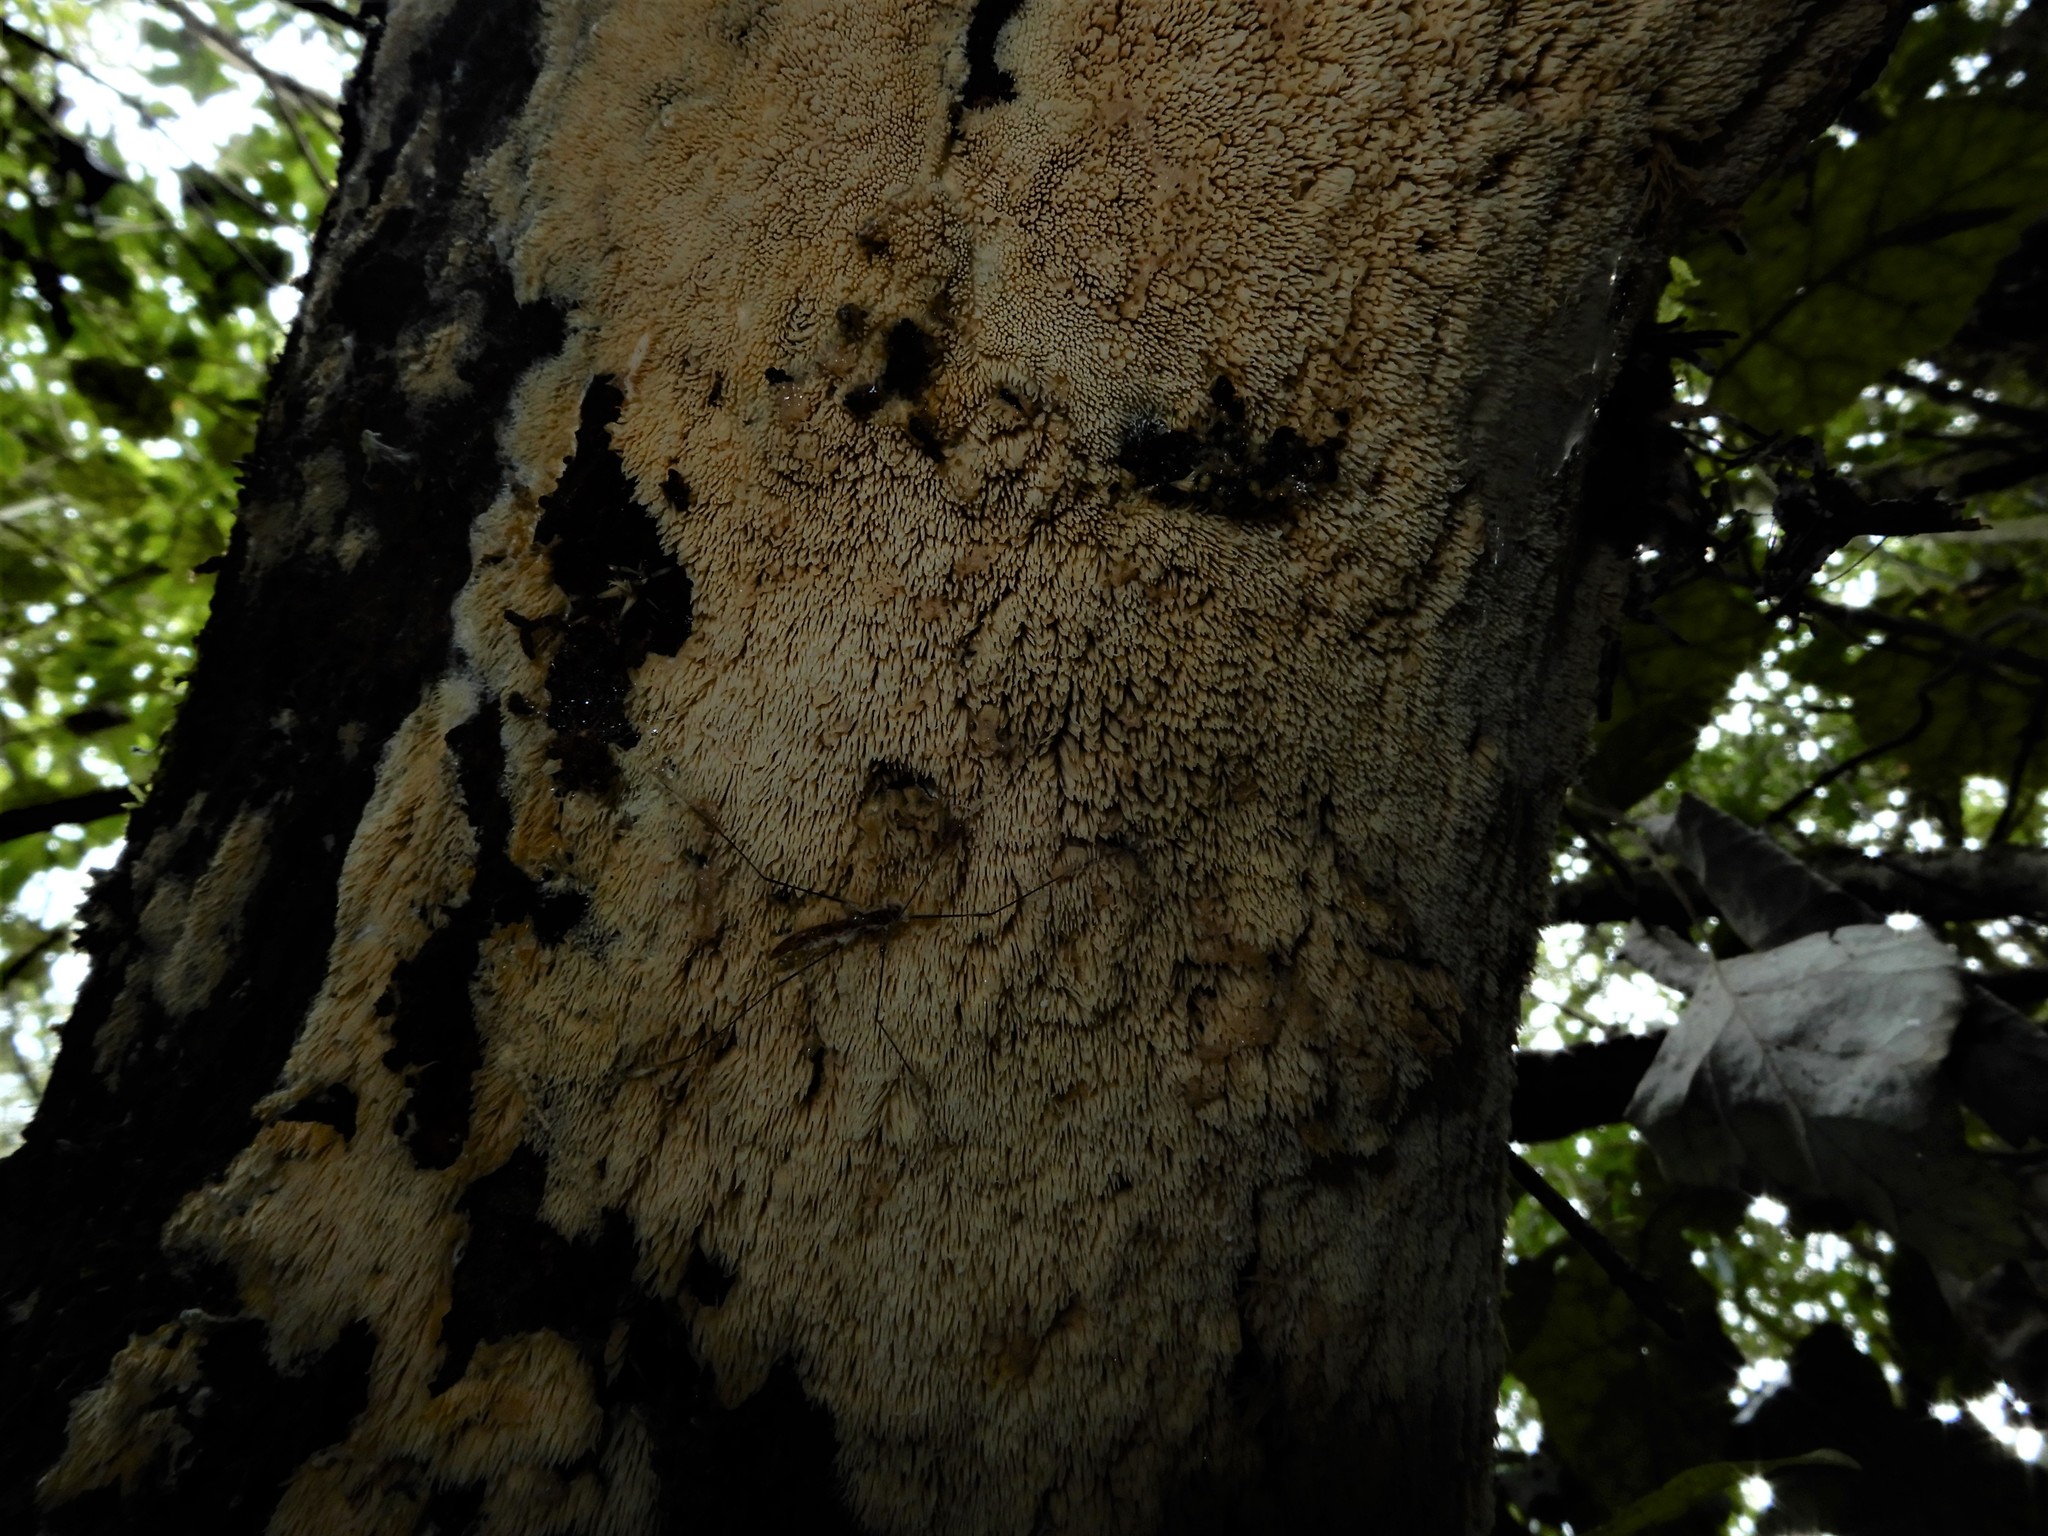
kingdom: Fungi
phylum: Basidiomycota
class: Agaricomycetes
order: Russulales
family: Hericiaceae
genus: Dentipellicula
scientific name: Dentipellicula leptodon
